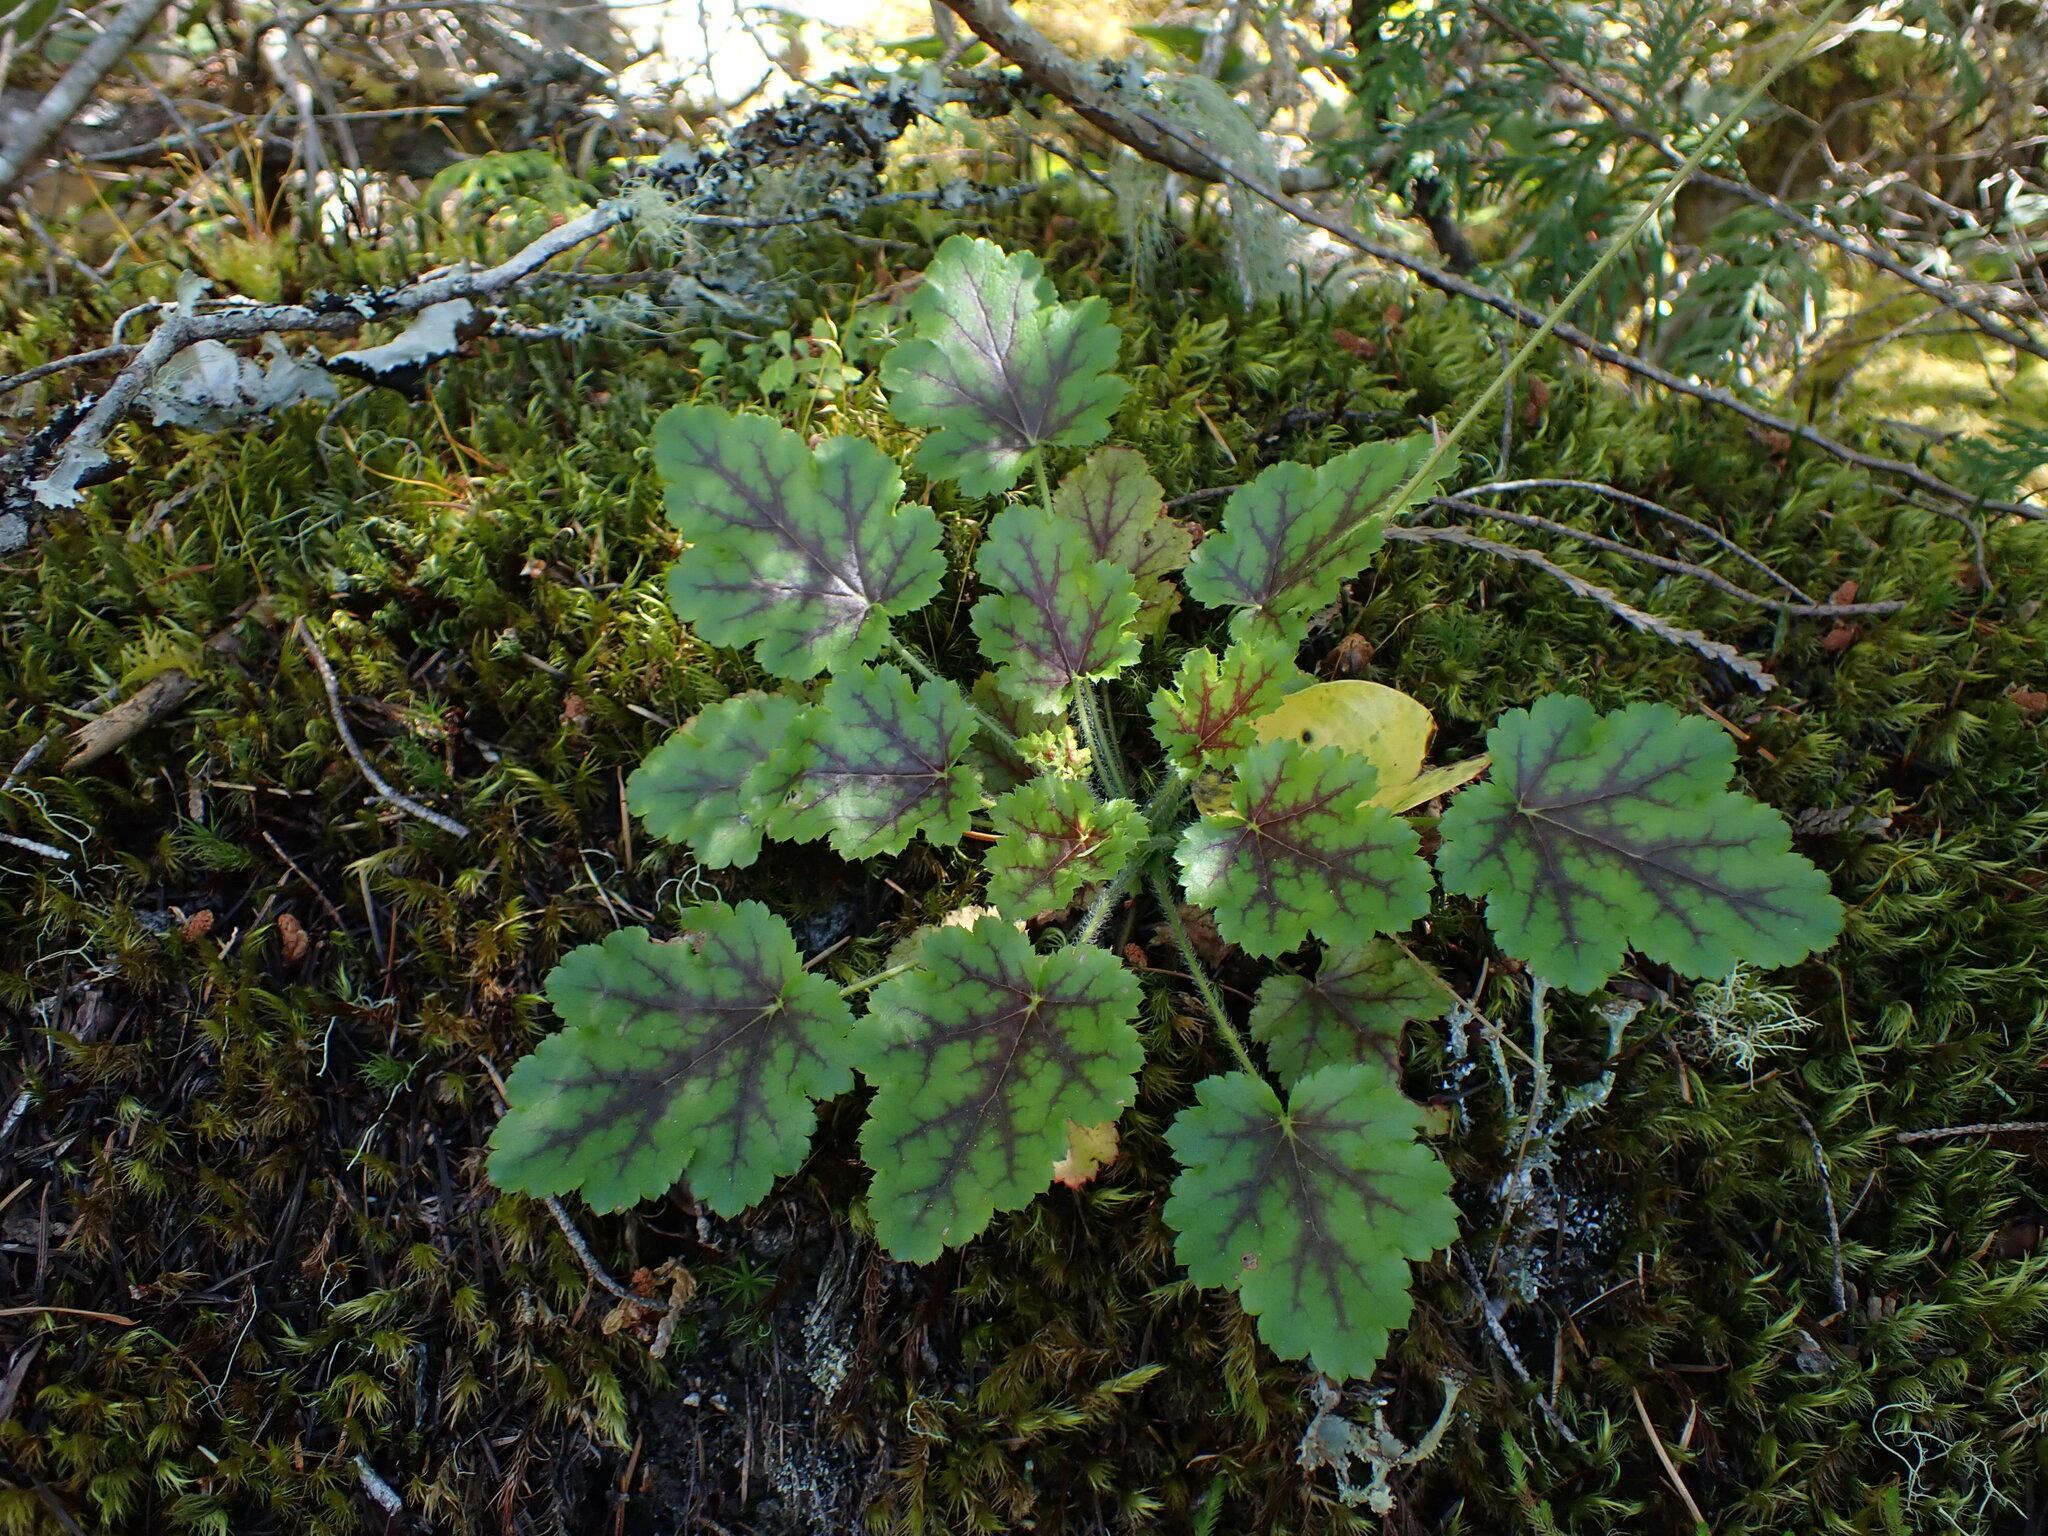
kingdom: Plantae
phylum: Tracheophyta
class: Magnoliopsida
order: Saxifragales
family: Saxifragaceae
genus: Heuchera
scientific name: Heuchera micrantha
